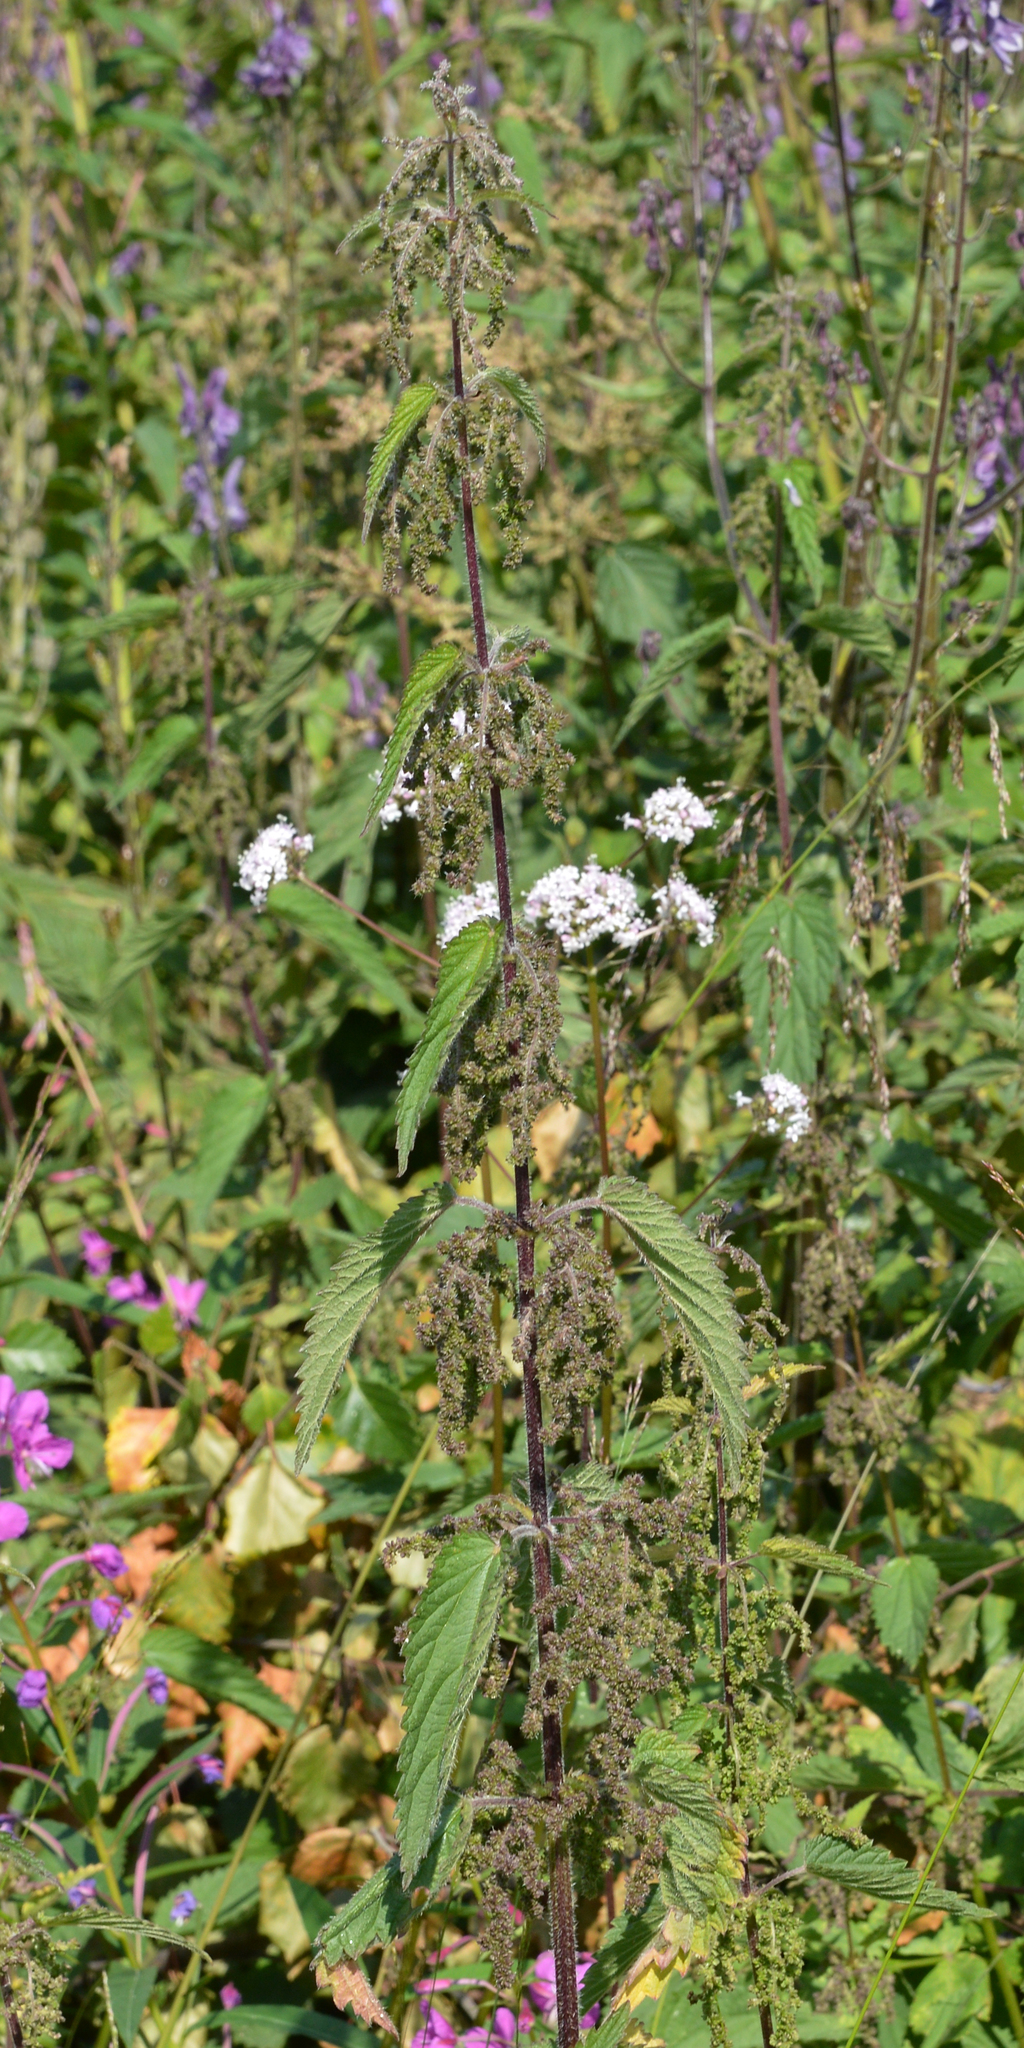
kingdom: Plantae
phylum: Tracheophyta
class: Magnoliopsida
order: Rosales
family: Urticaceae
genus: Urtica
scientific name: Urtica dioica
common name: Common nettle
